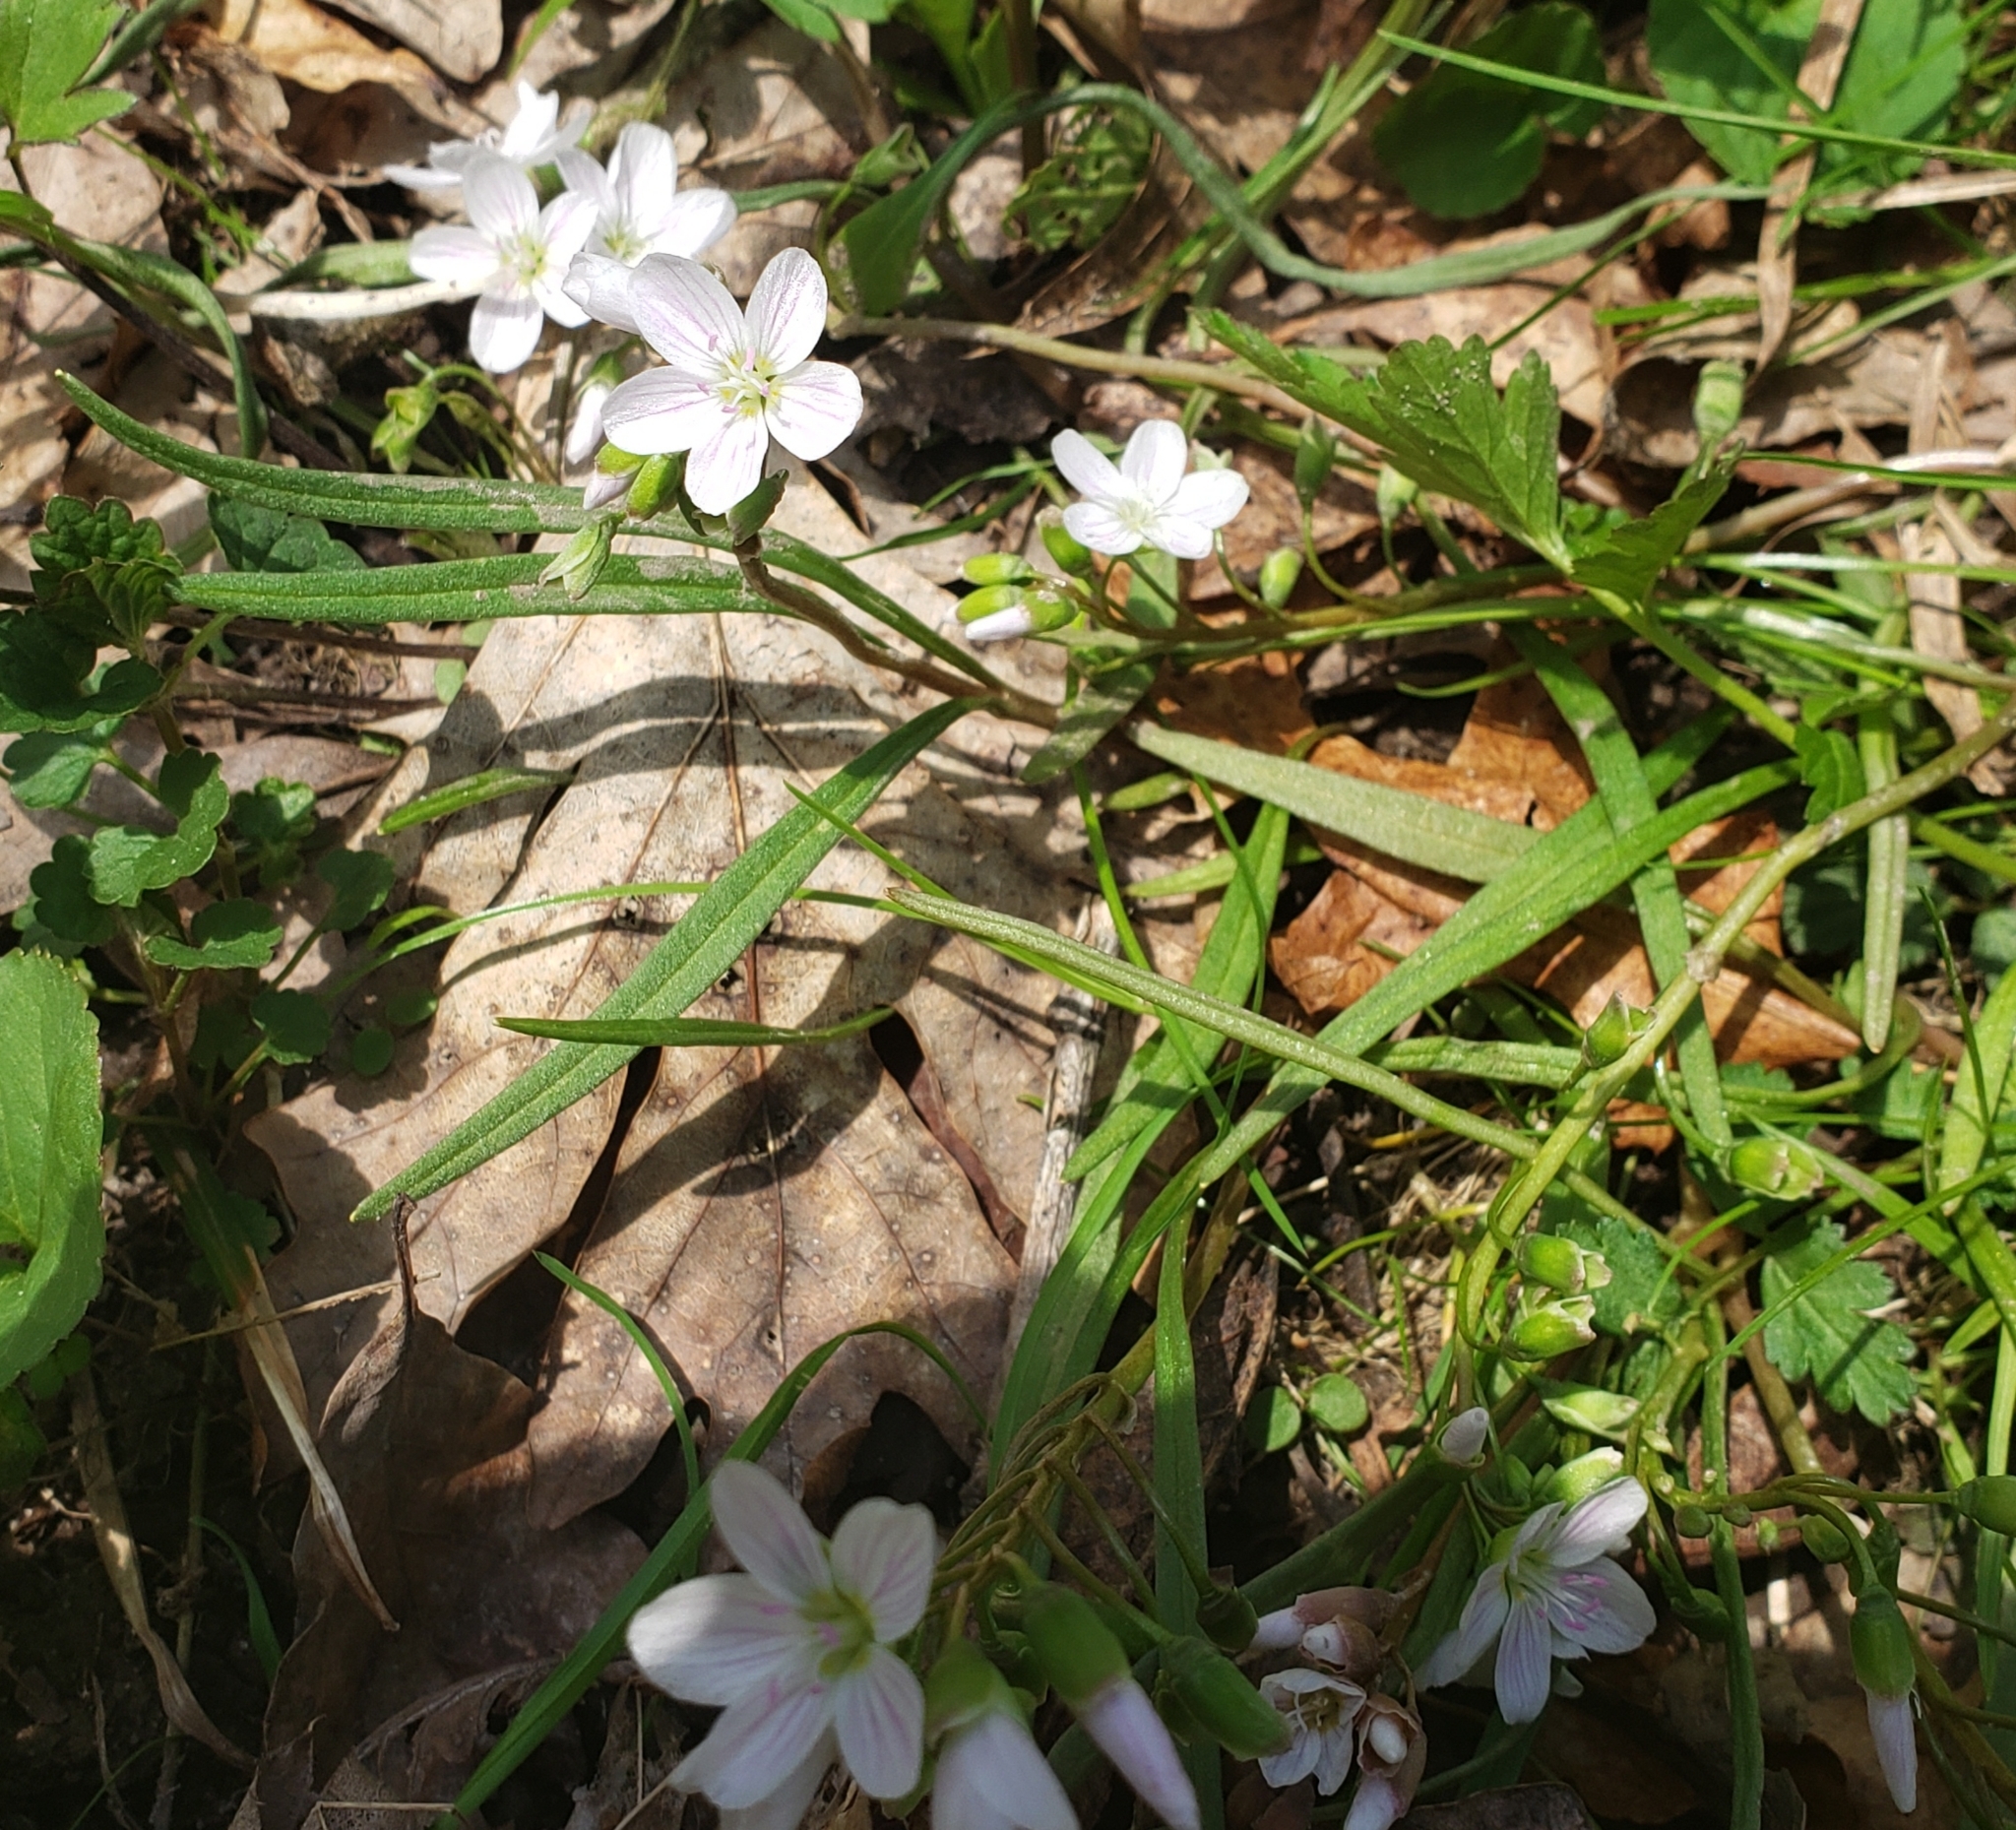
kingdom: Plantae
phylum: Tracheophyta
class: Magnoliopsida
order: Caryophyllales
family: Montiaceae
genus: Claytonia
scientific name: Claytonia virginica
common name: Virginia springbeauty
